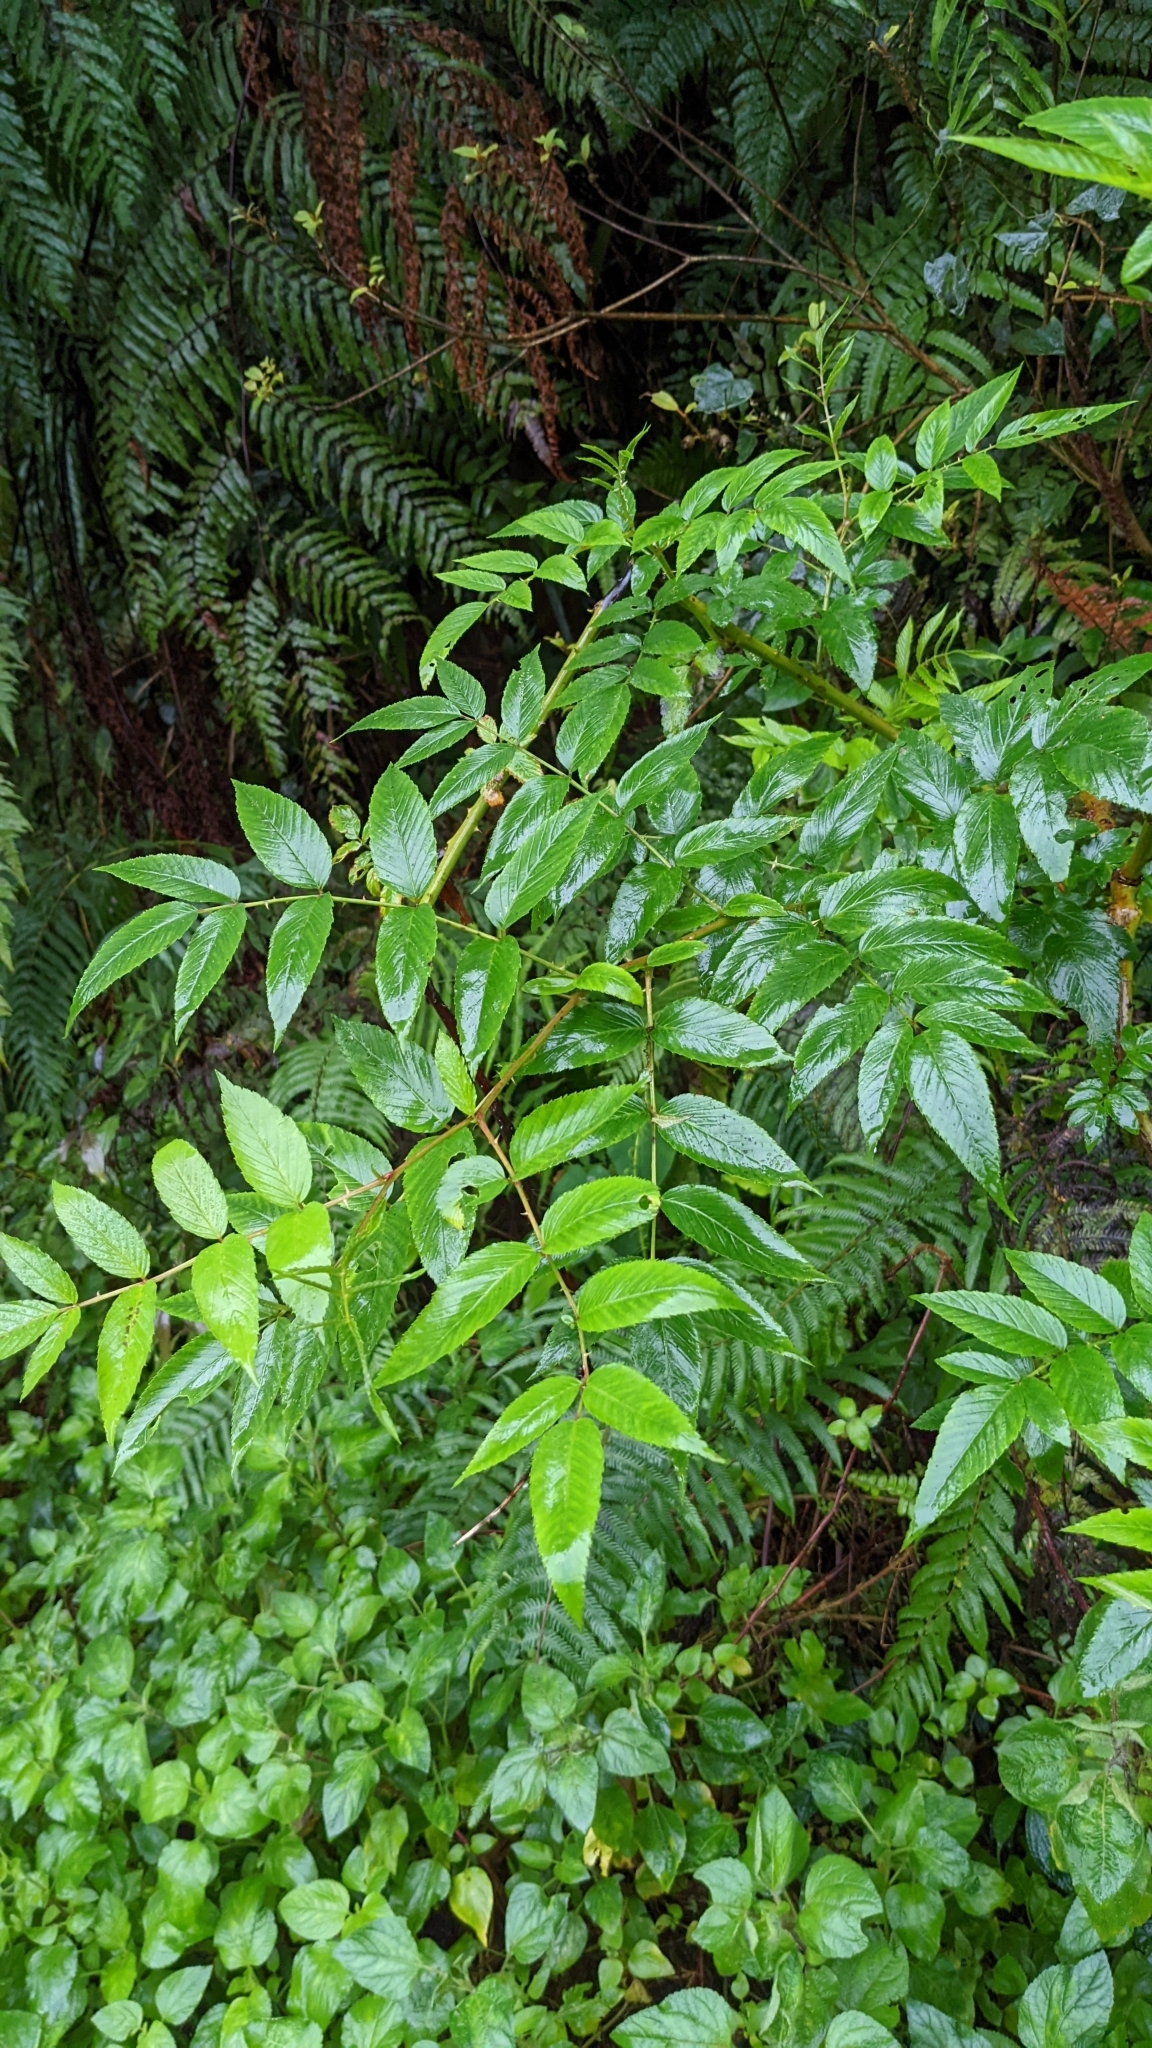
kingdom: Plantae
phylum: Tracheophyta
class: Magnoliopsida
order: Rosales
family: Rosaceae
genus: Rubus
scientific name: Rubus fraxinifolius
